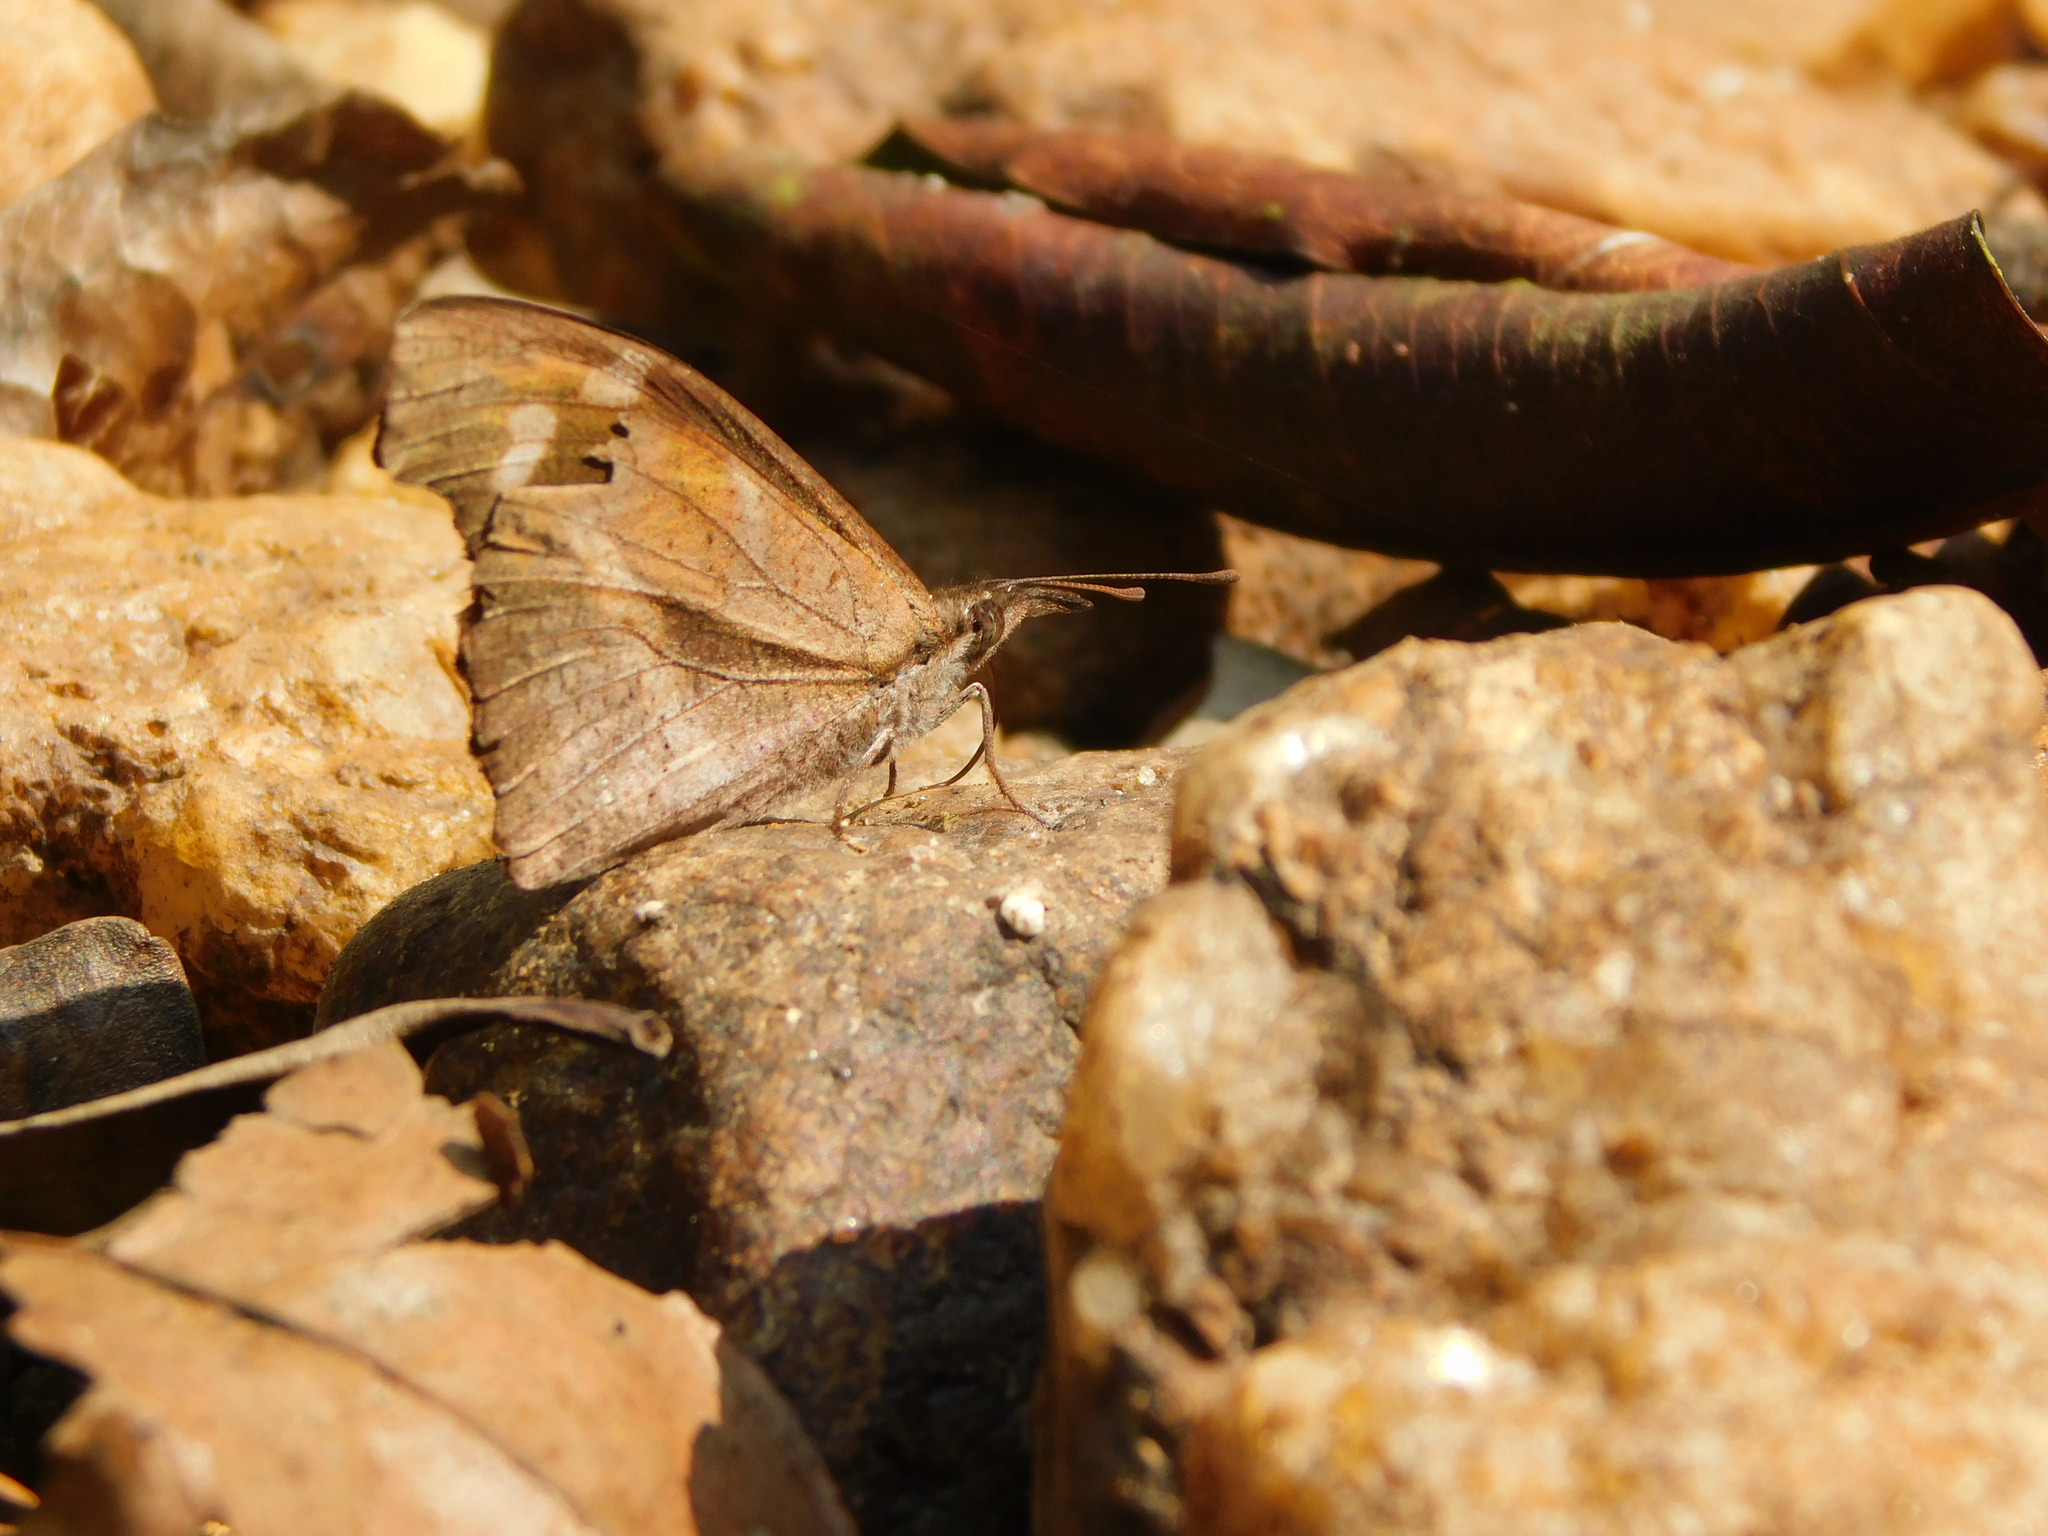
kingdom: Animalia
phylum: Arthropoda
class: Insecta
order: Lepidoptera
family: Nymphalidae
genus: Libythea
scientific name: Libythea myrrha
